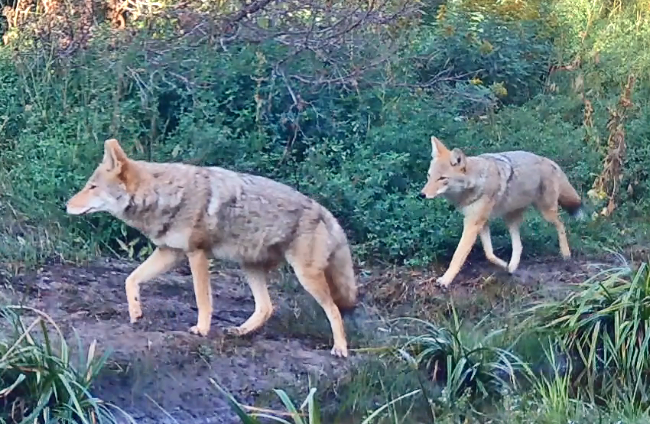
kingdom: Animalia
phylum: Chordata
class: Mammalia
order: Carnivora
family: Canidae
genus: Canis
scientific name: Canis latrans
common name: Coyote
